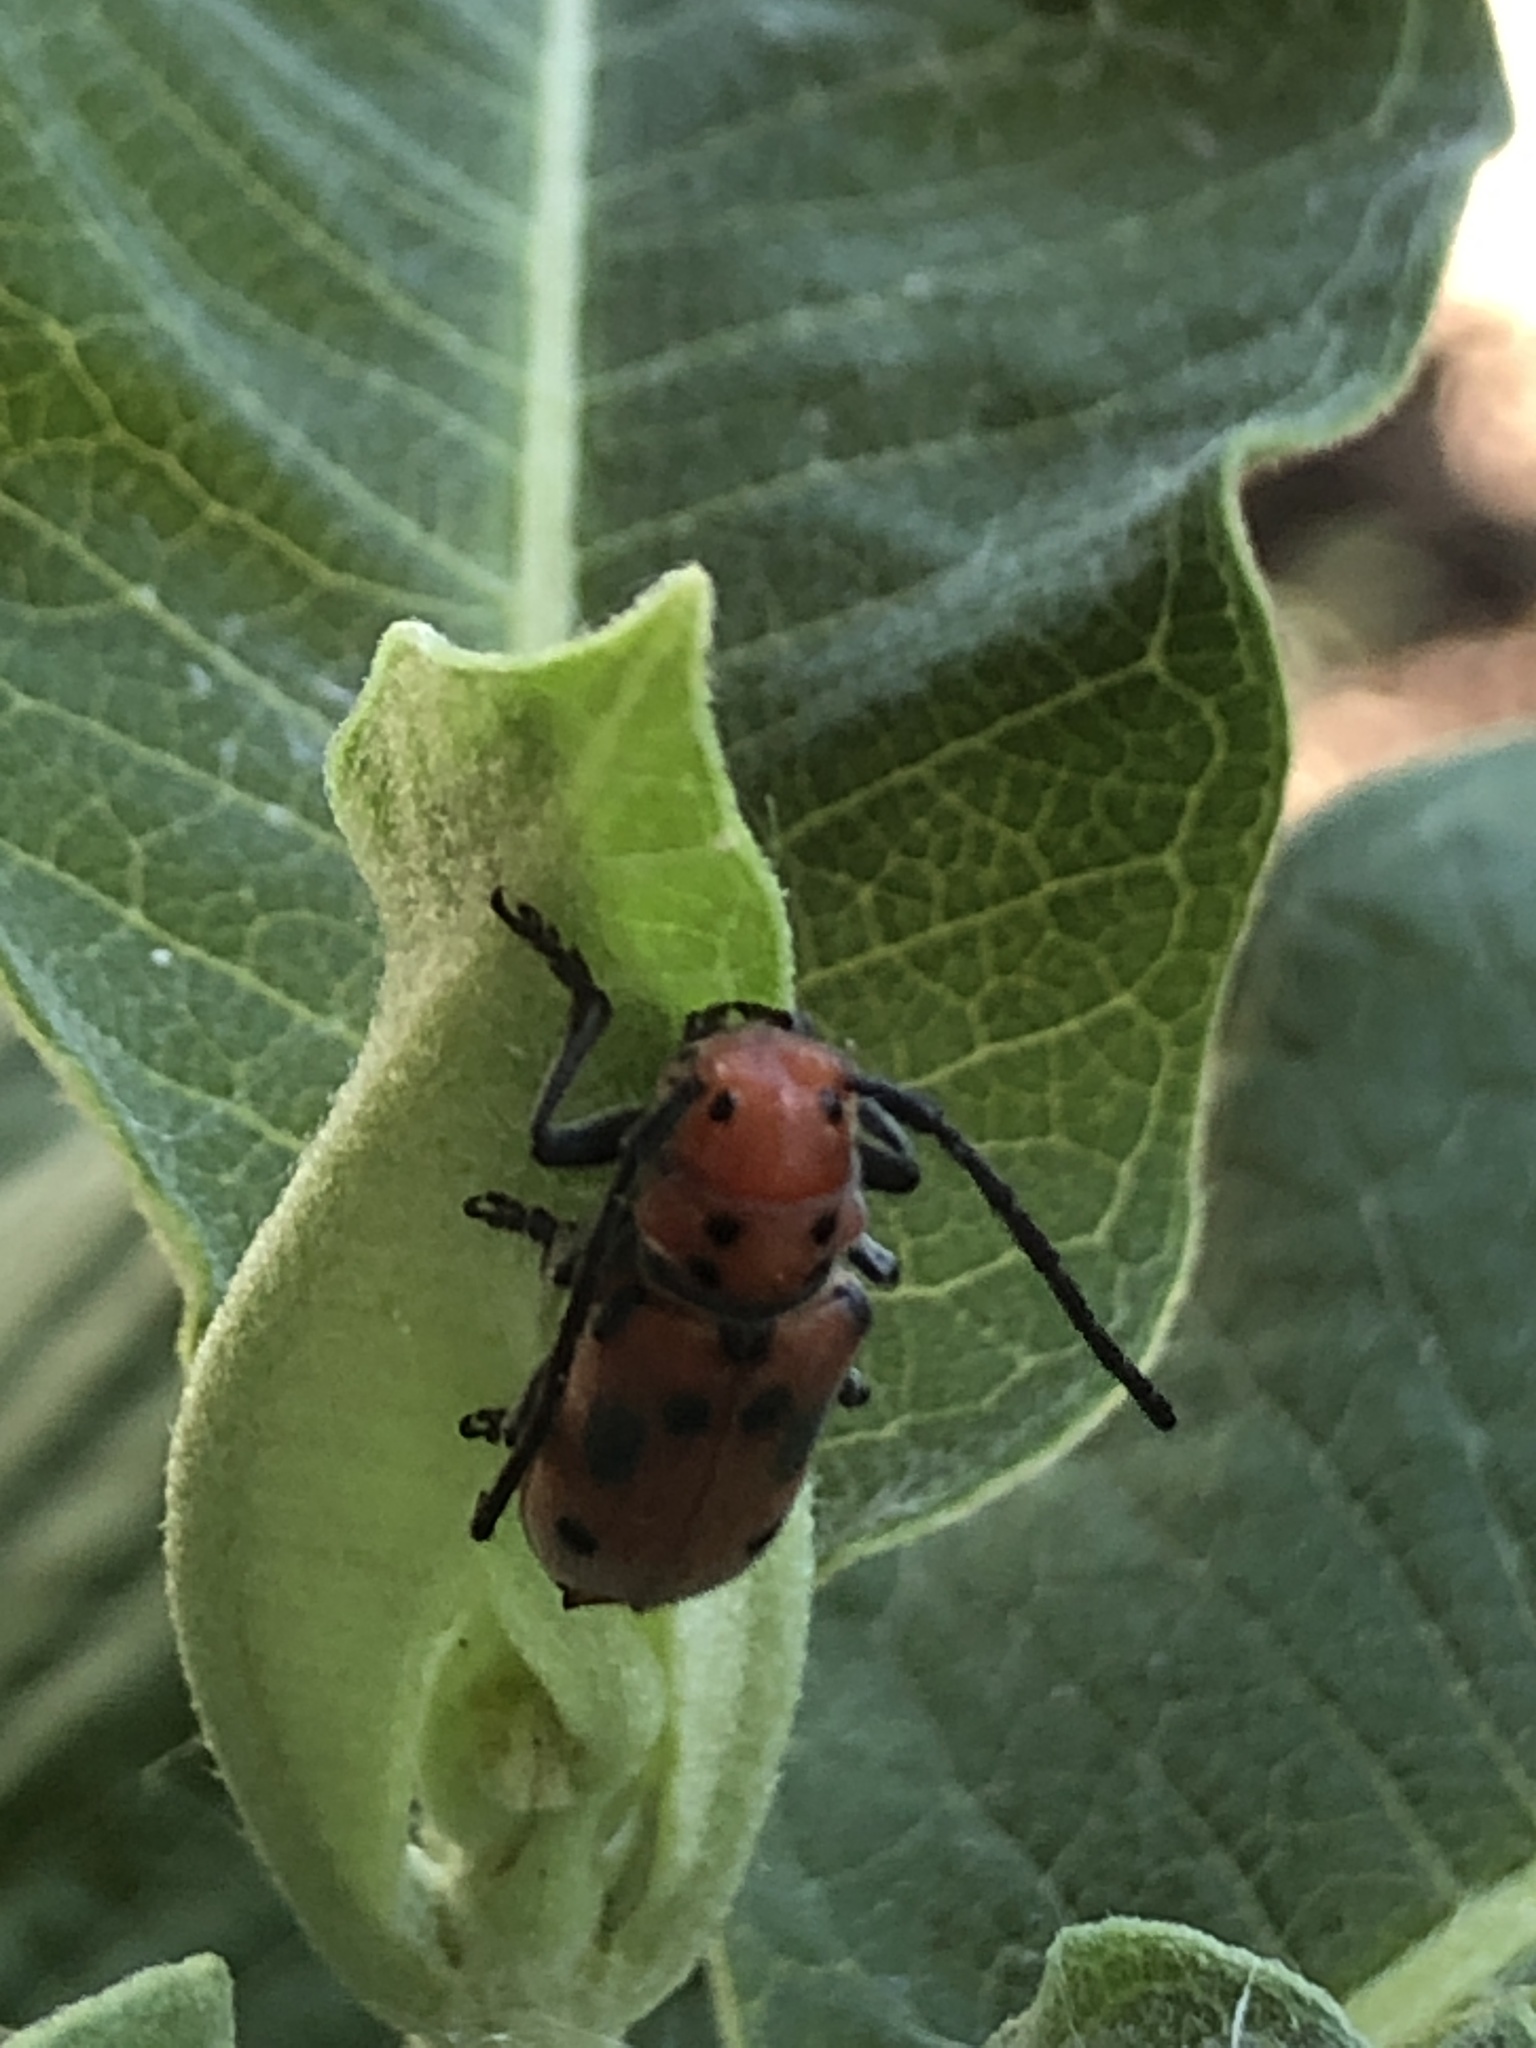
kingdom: Animalia
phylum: Arthropoda
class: Insecta
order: Coleoptera
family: Cerambycidae
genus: Tetraopes
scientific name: Tetraopes tetrophthalmus
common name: Red milkweed beetle
